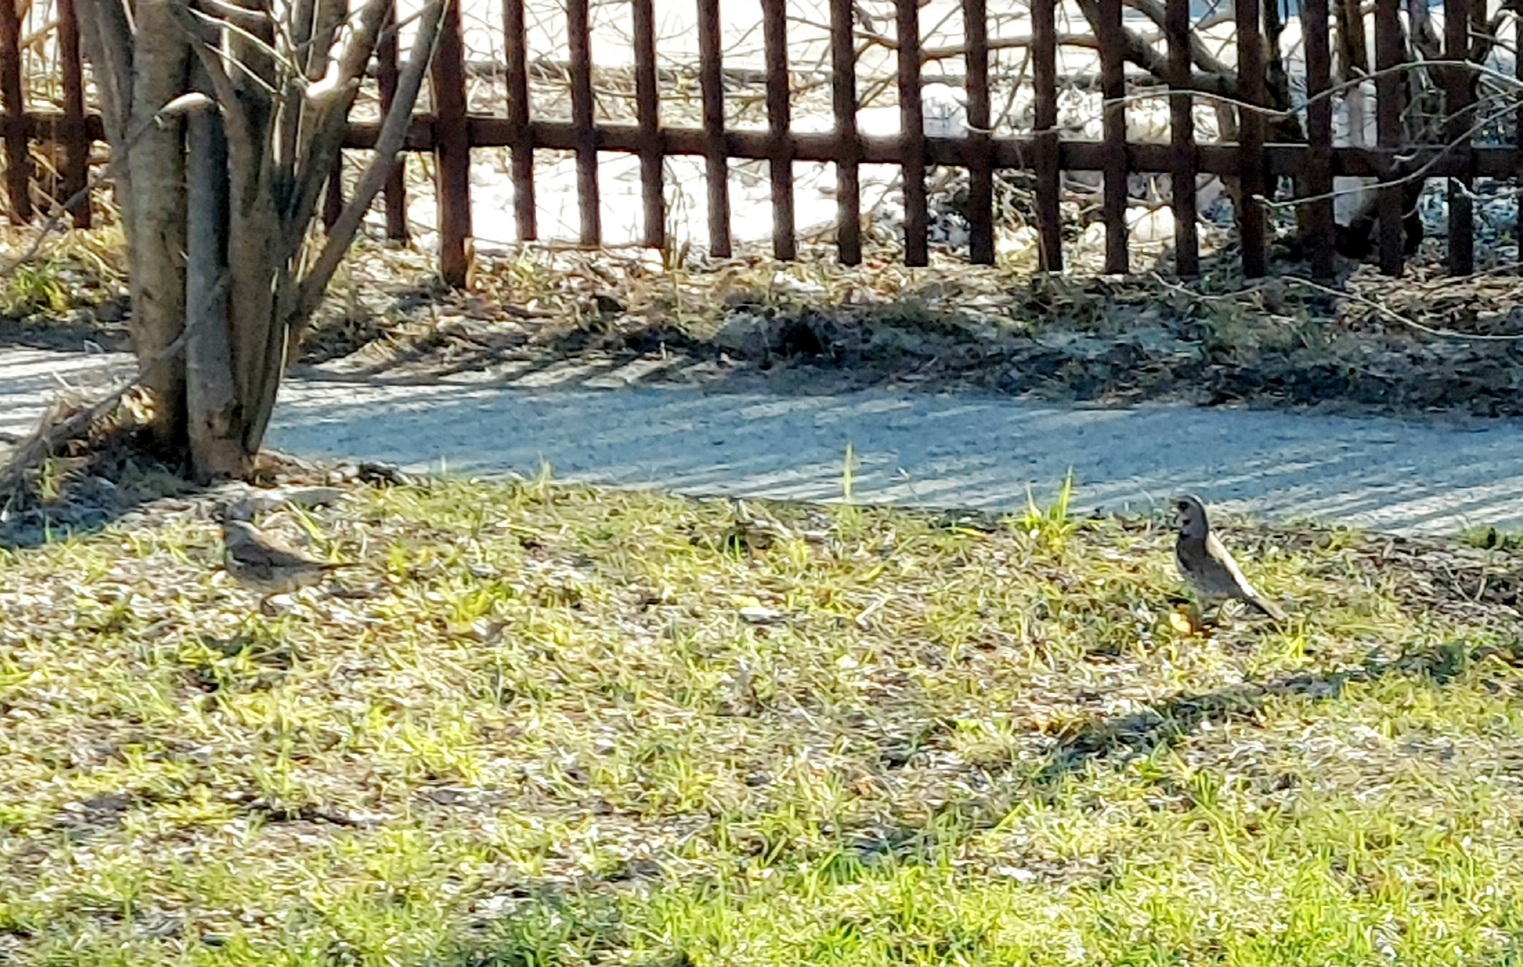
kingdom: Animalia
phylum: Chordata
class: Aves
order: Passeriformes
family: Turdidae
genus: Turdus
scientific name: Turdus pilaris
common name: Fieldfare
